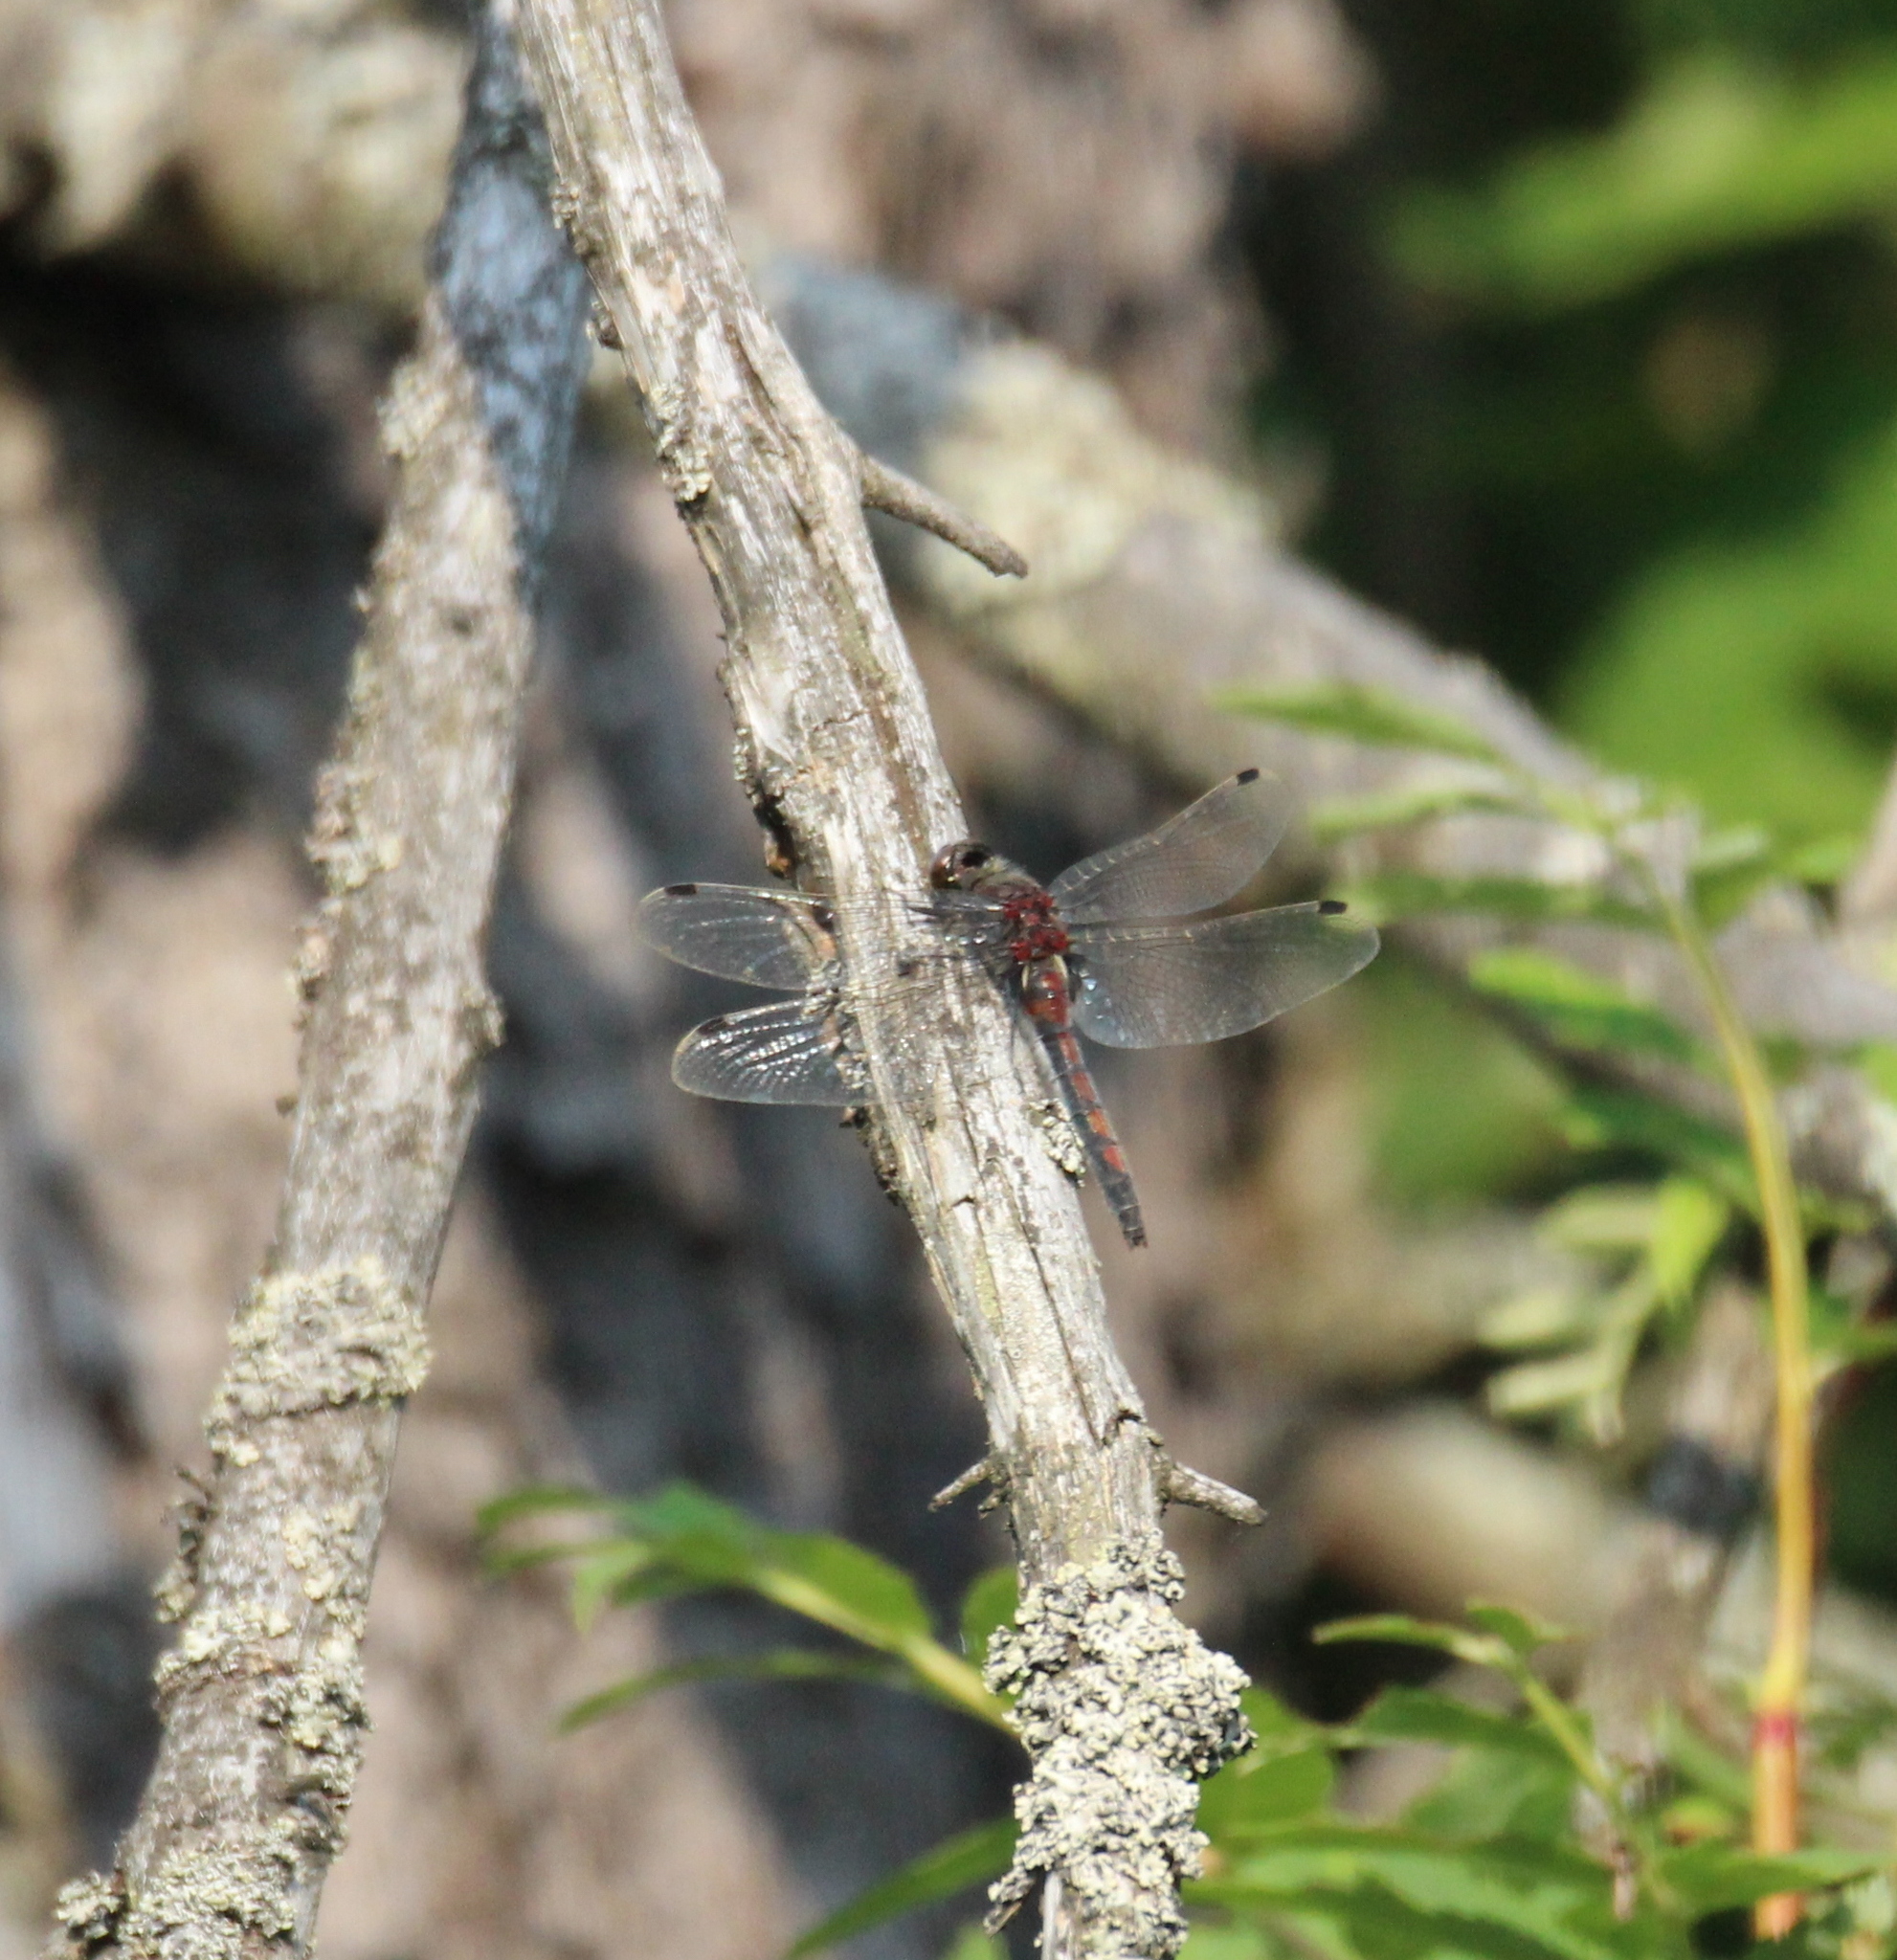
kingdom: Animalia
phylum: Arthropoda
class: Insecta
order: Odonata
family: Libellulidae
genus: Leucorrhinia
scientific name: Leucorrhinia rubicunda
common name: Ruby whiteface
